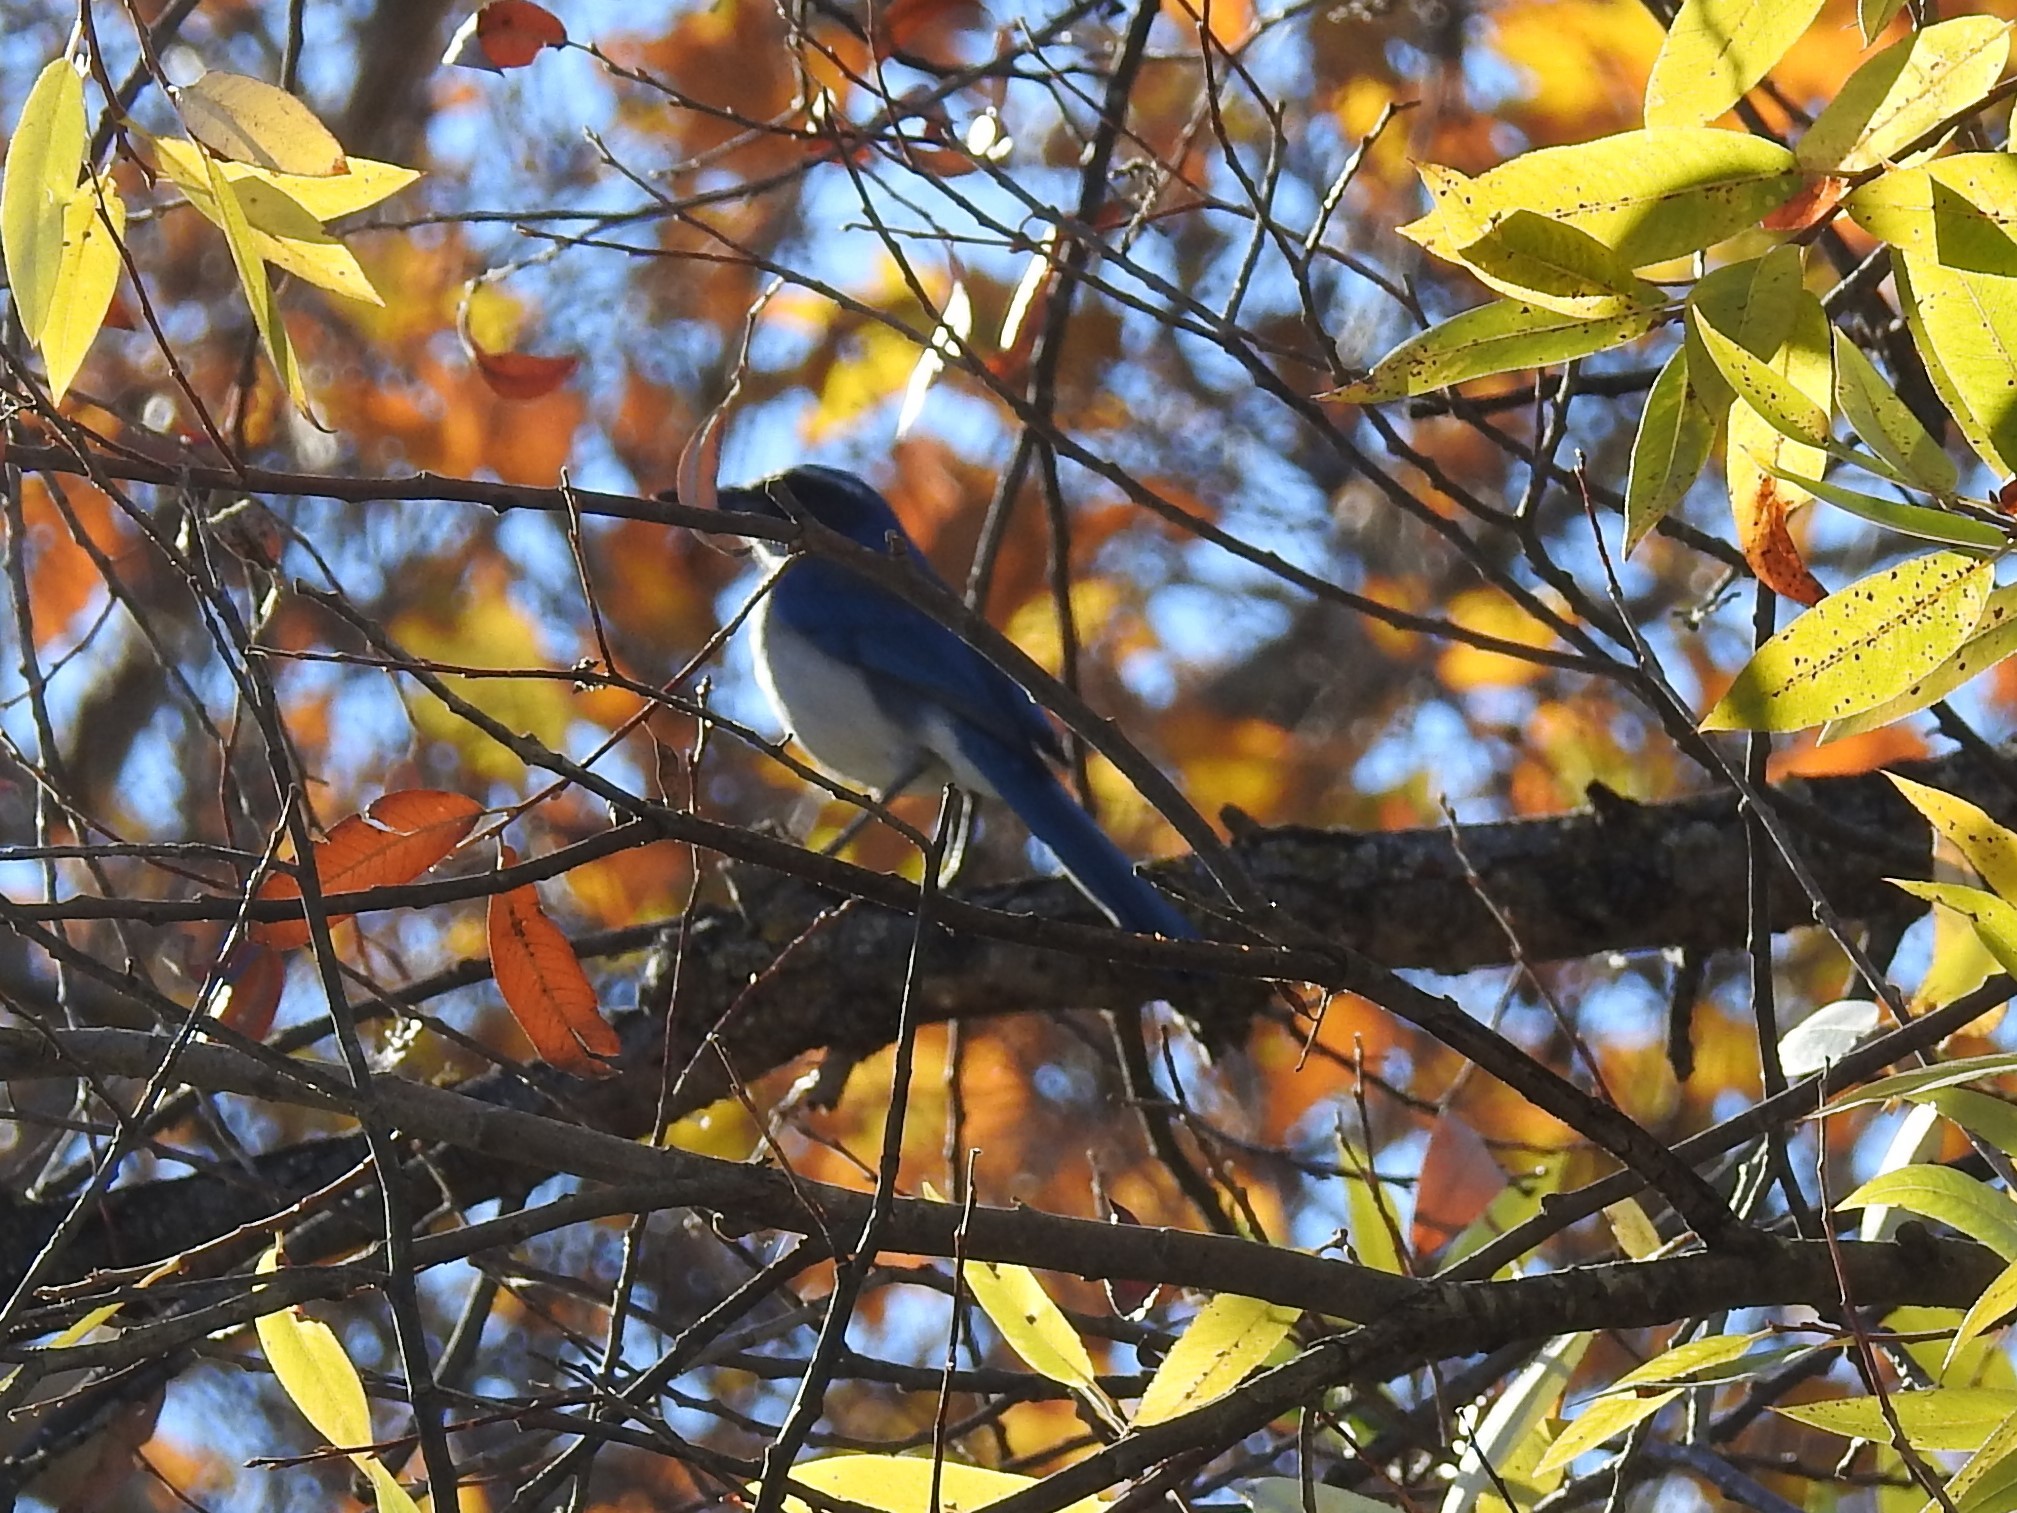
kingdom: Animalia
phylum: Chordata
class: Aves
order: Passeriformes
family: Corvidae
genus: Aphelocoma
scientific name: Aphelocoma californica
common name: California scrub-jay
